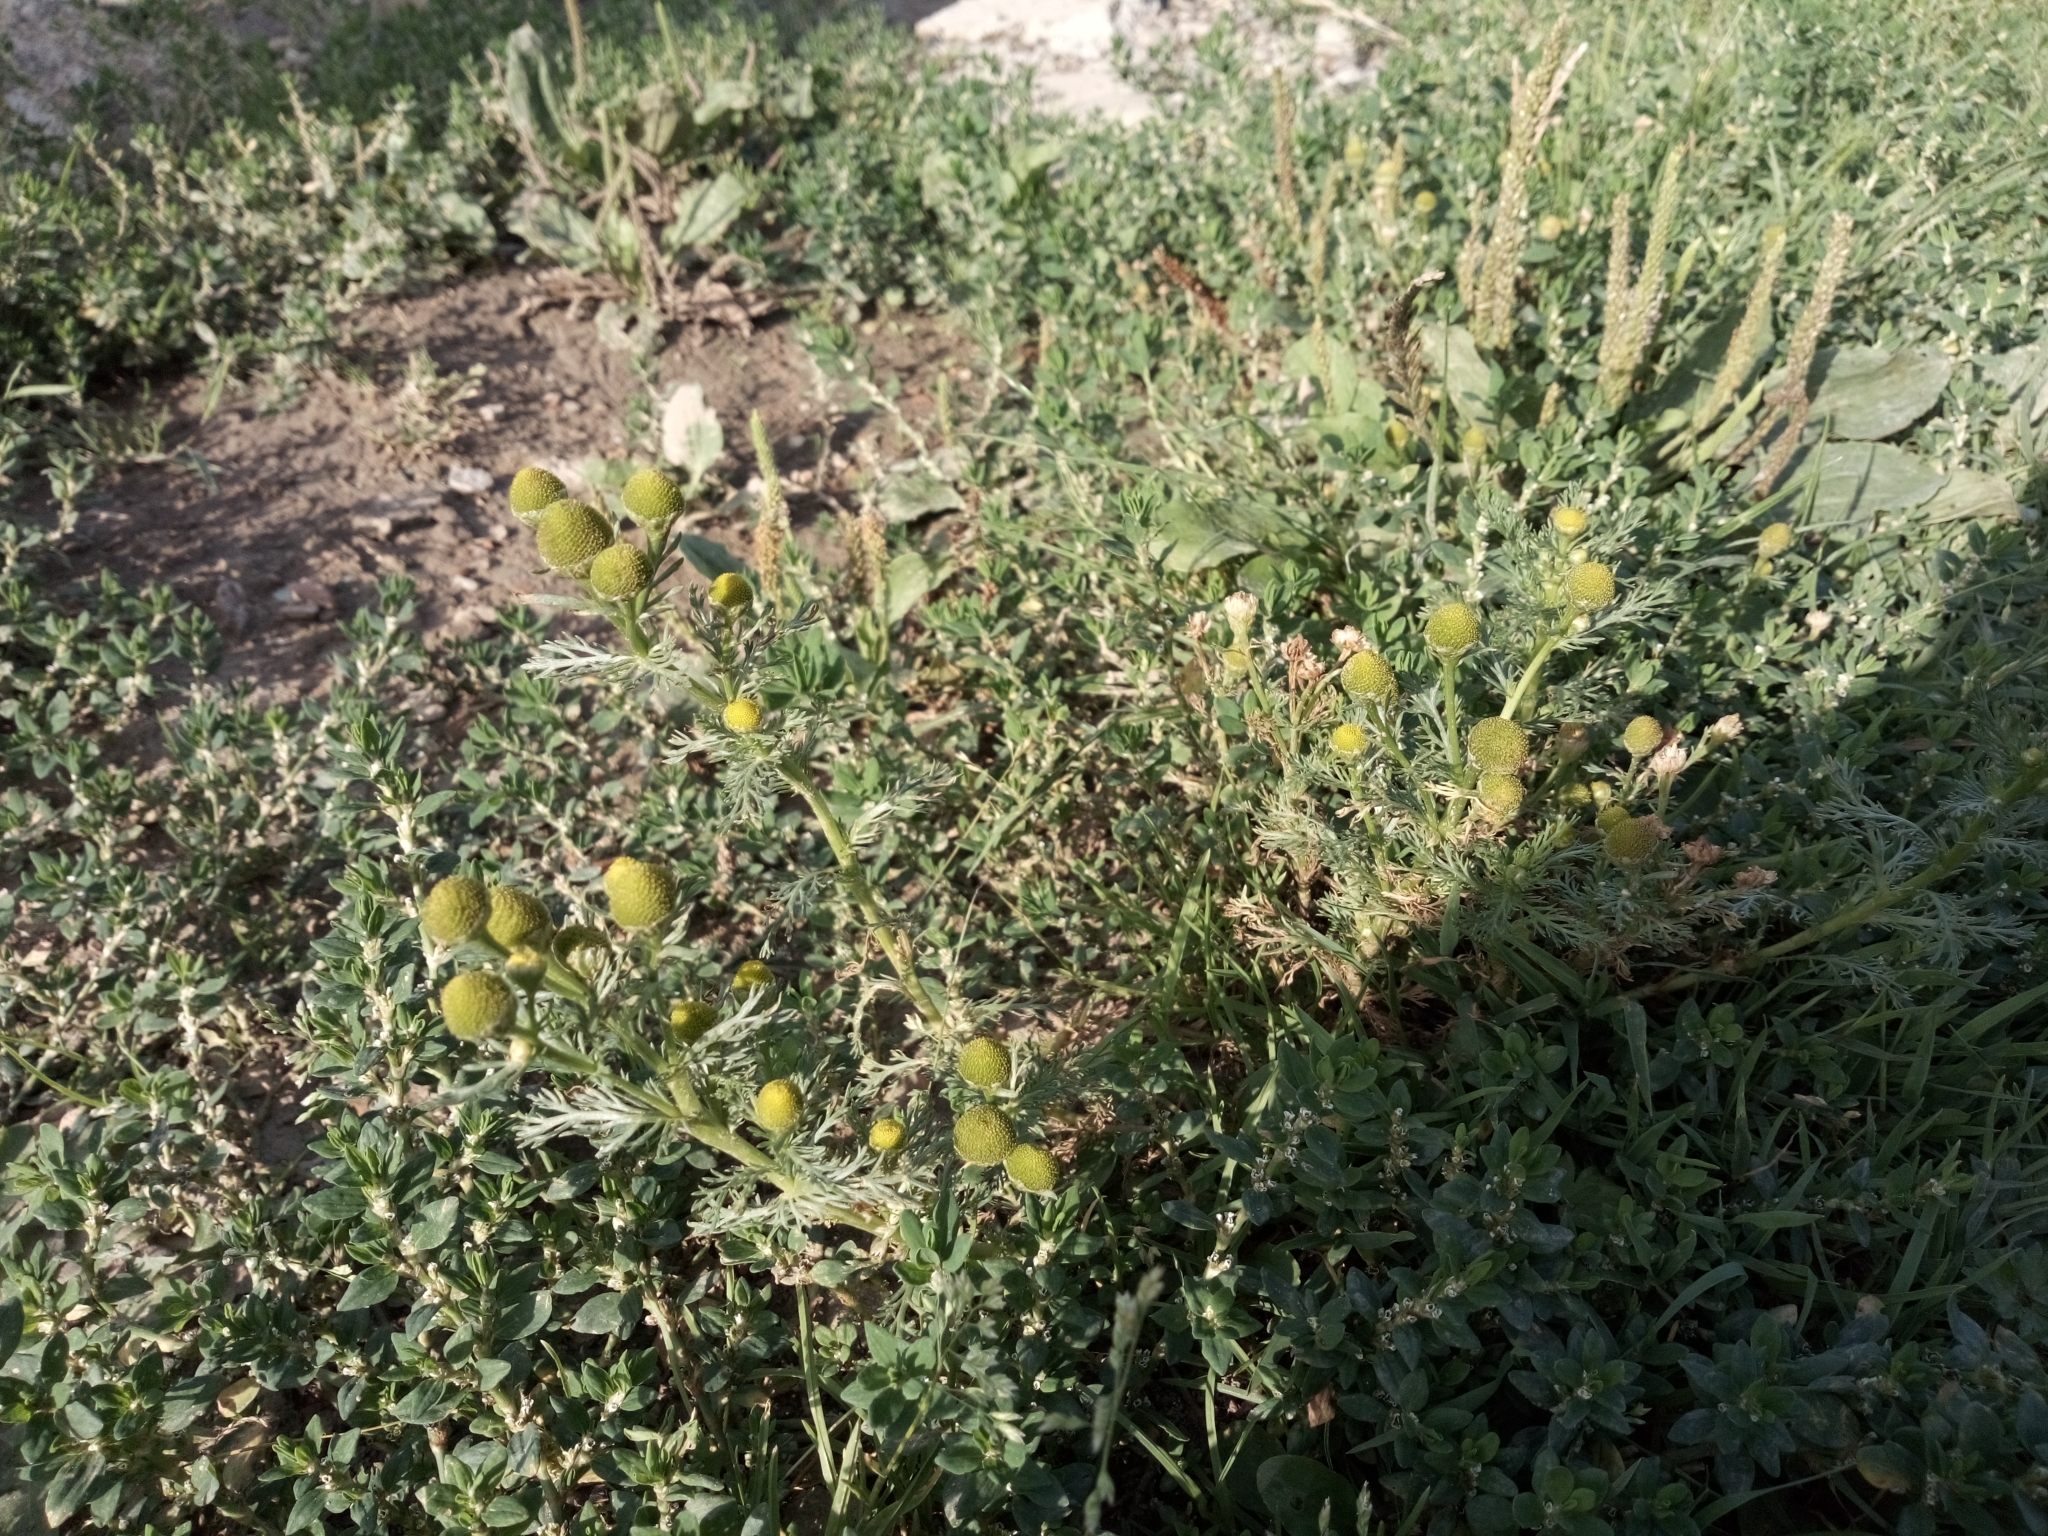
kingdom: Plantae
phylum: Tracheophyta
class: Magnoliopsida
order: Asterales
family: Asteraceae
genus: Matricaria
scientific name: Matricaria discoidea
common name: Disc mayweed
